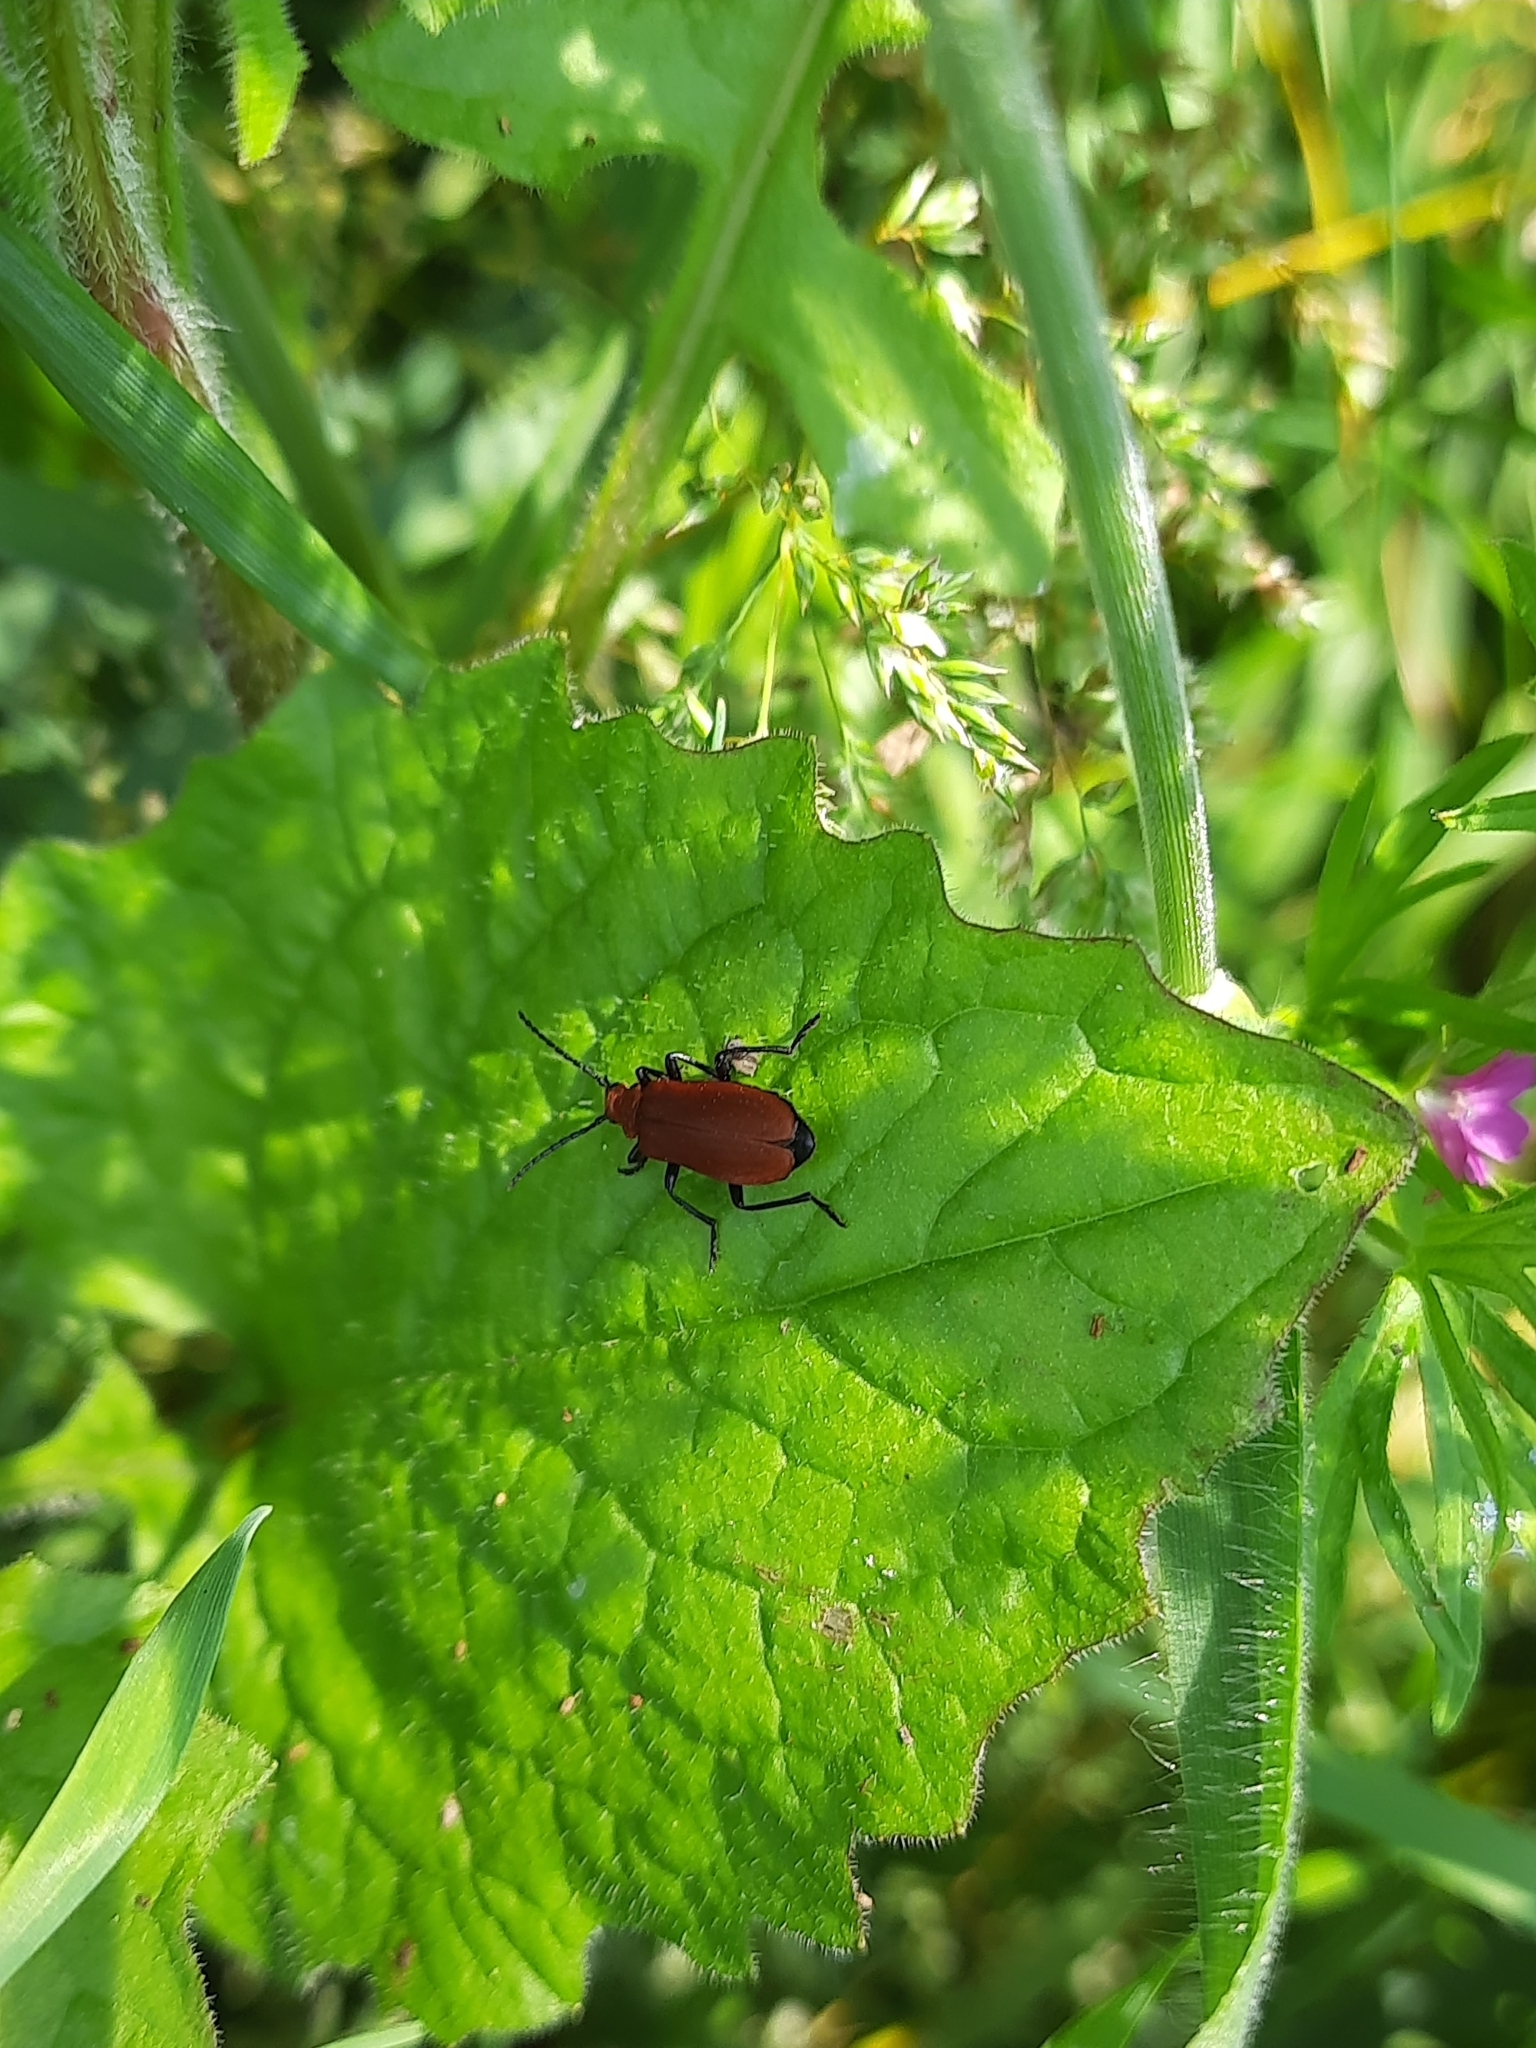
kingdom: Animalia
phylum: Arthropoda
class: Insecta
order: Coleoptera
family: Pyrochroidae
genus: Pyrochroa
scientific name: Pyrochroa serraticornis
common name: Red-headed cardinal beetle
